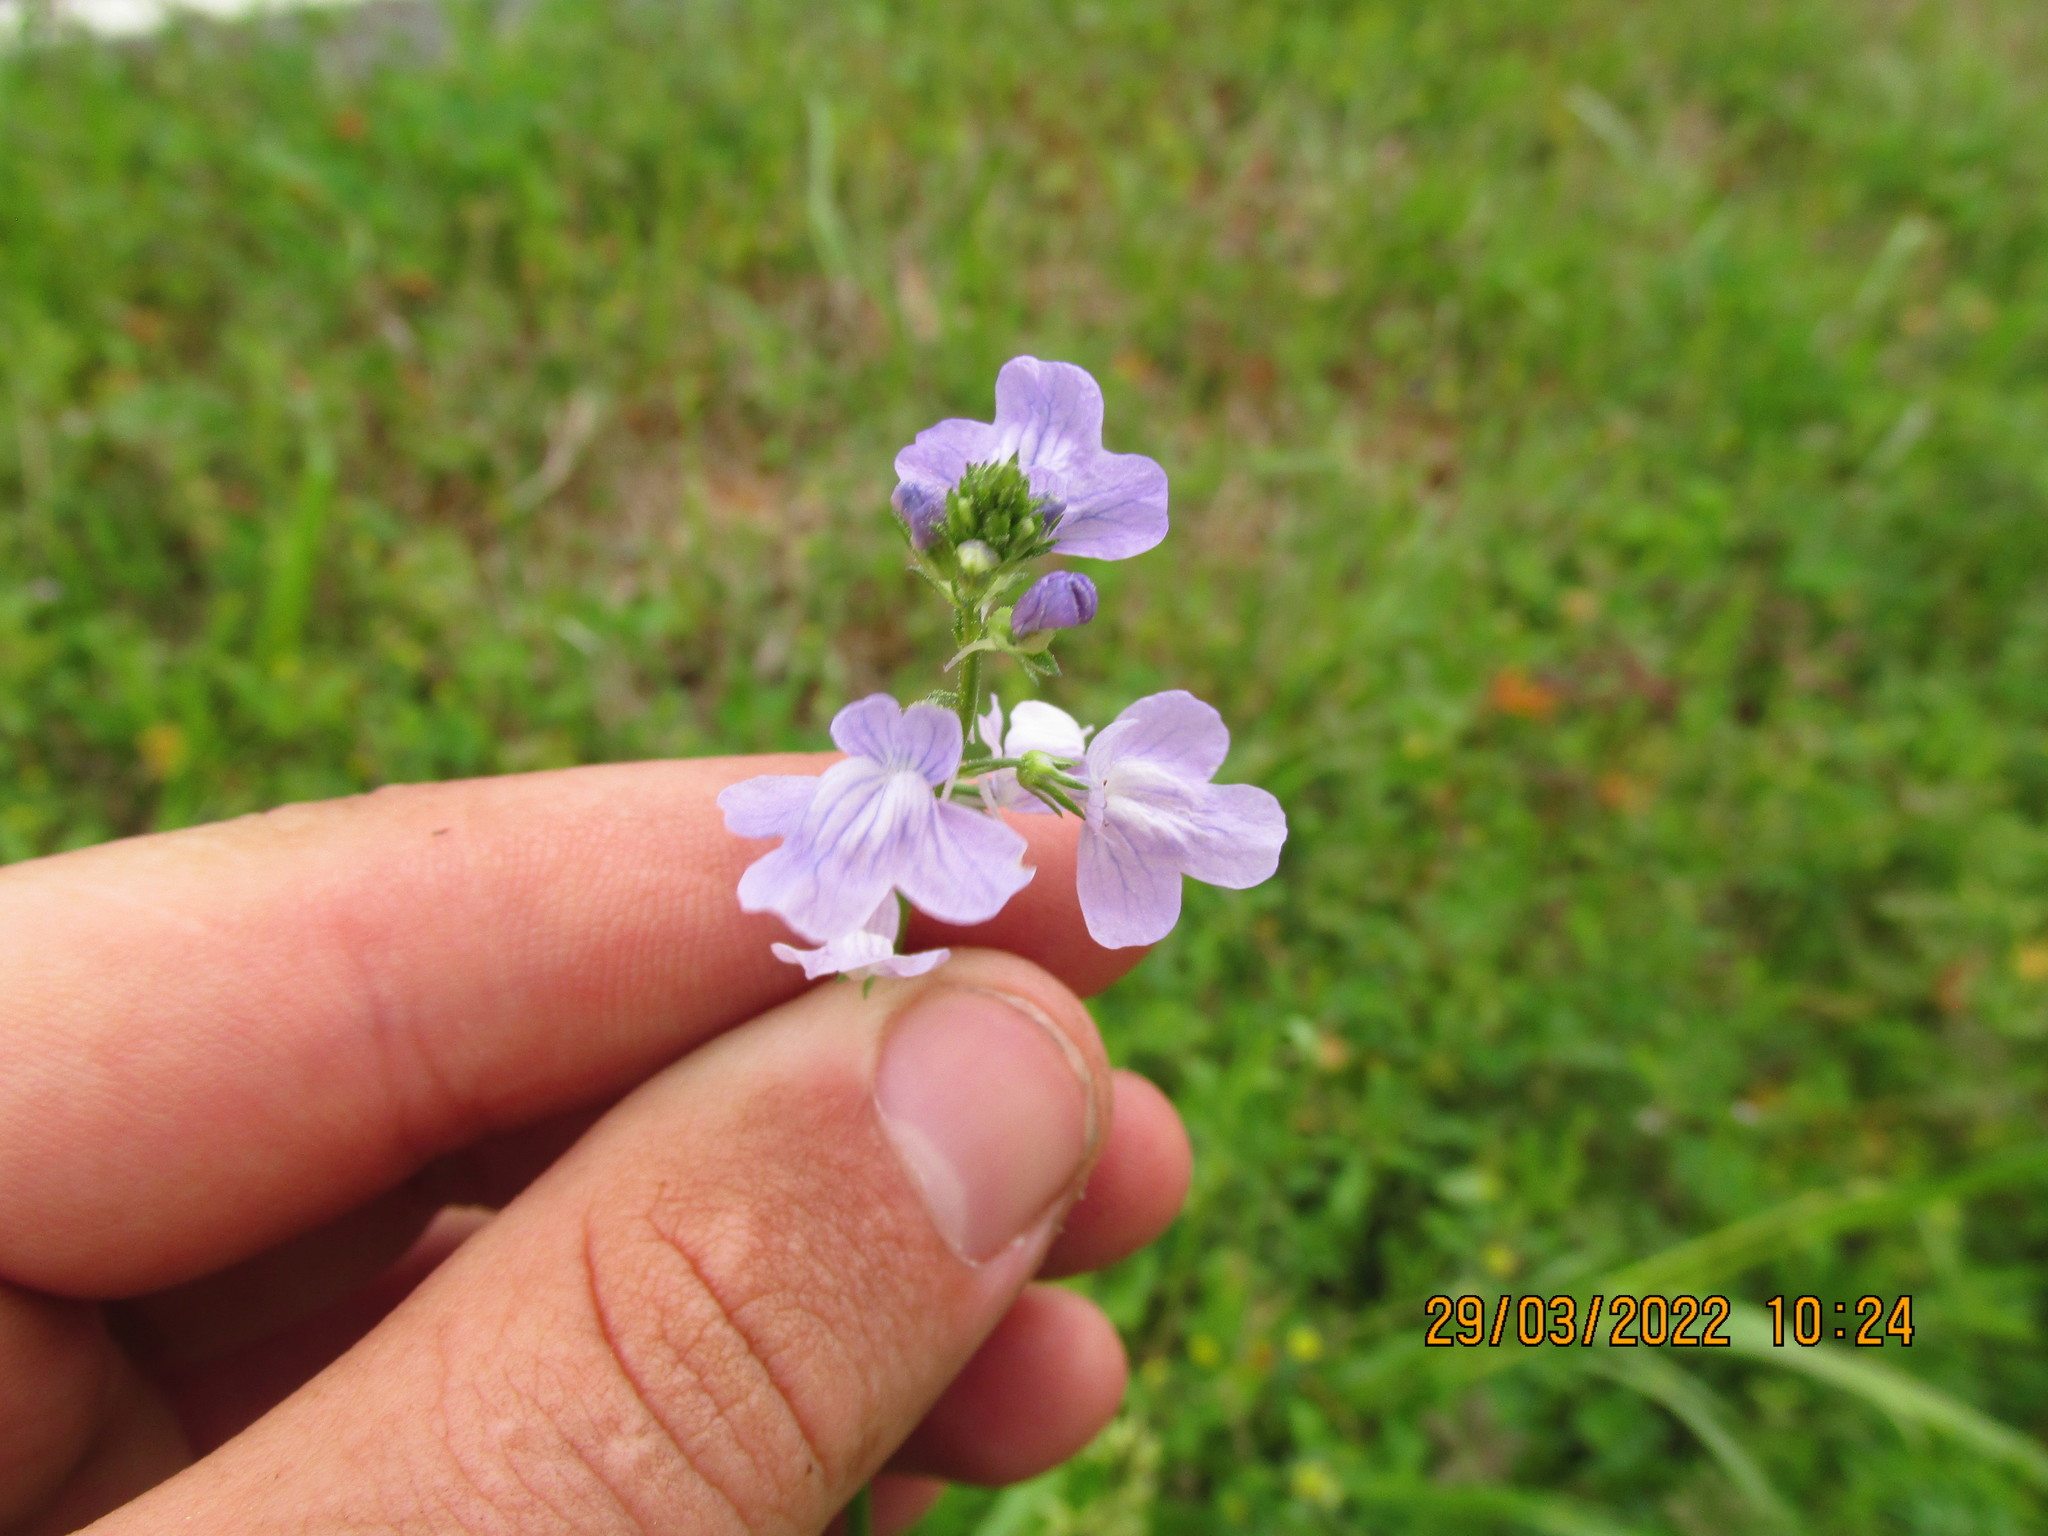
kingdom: Plantae
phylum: Tracheophyta
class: Magnoliopsida
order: Lamiales
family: Plantaginaceae
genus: Nuttallanthus
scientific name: Nuttallanthus texanus
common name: Texas toadflax
